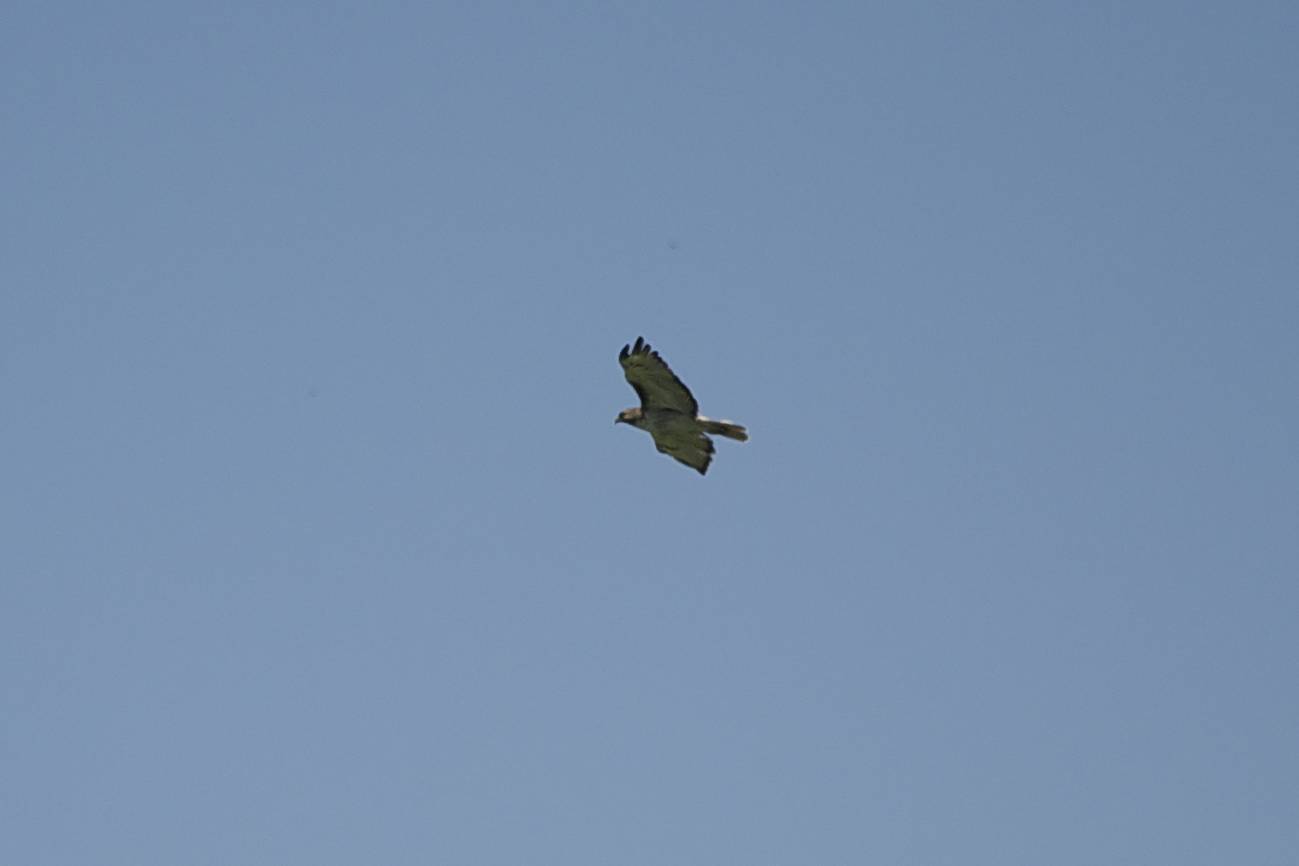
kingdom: Animalia
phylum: Chordata
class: Aves
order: Accipitriformes
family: Accipitridae
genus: Buteo
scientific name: Buteo jamaicensis
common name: Red-tailed hawk
